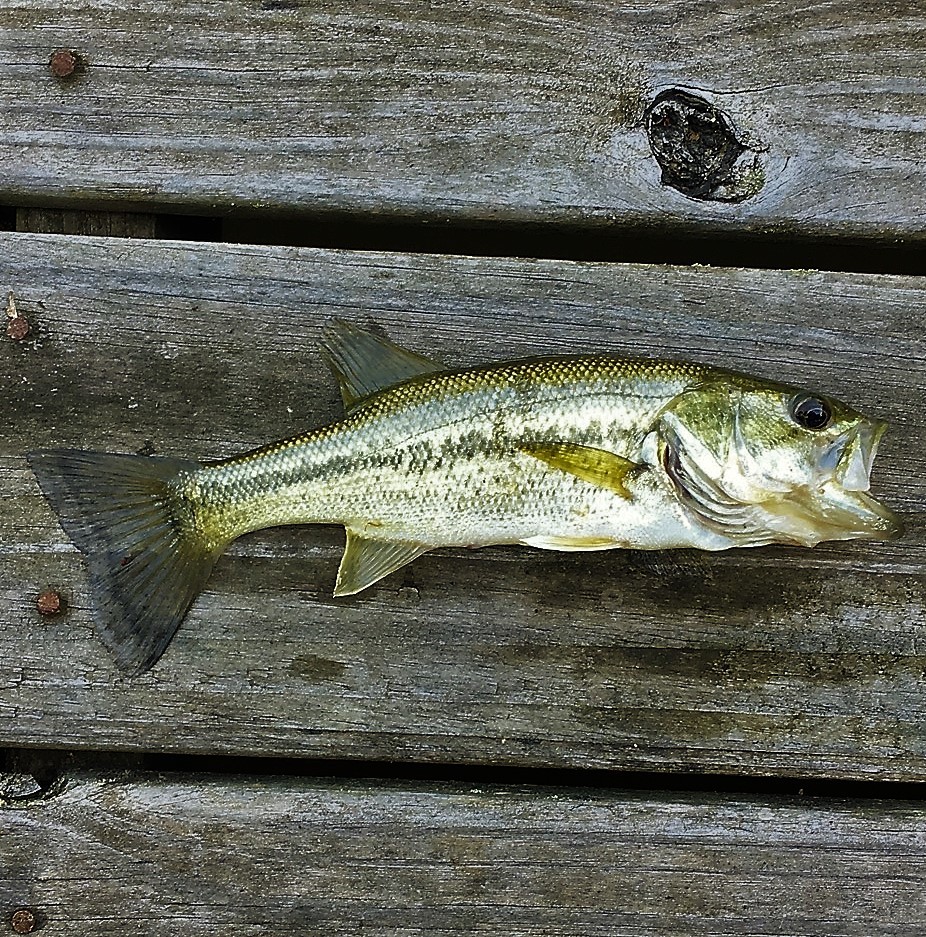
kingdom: Animalia
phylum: Chordata
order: Perciformes
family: Centrarchidae
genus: Micropterus
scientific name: Micropterus
